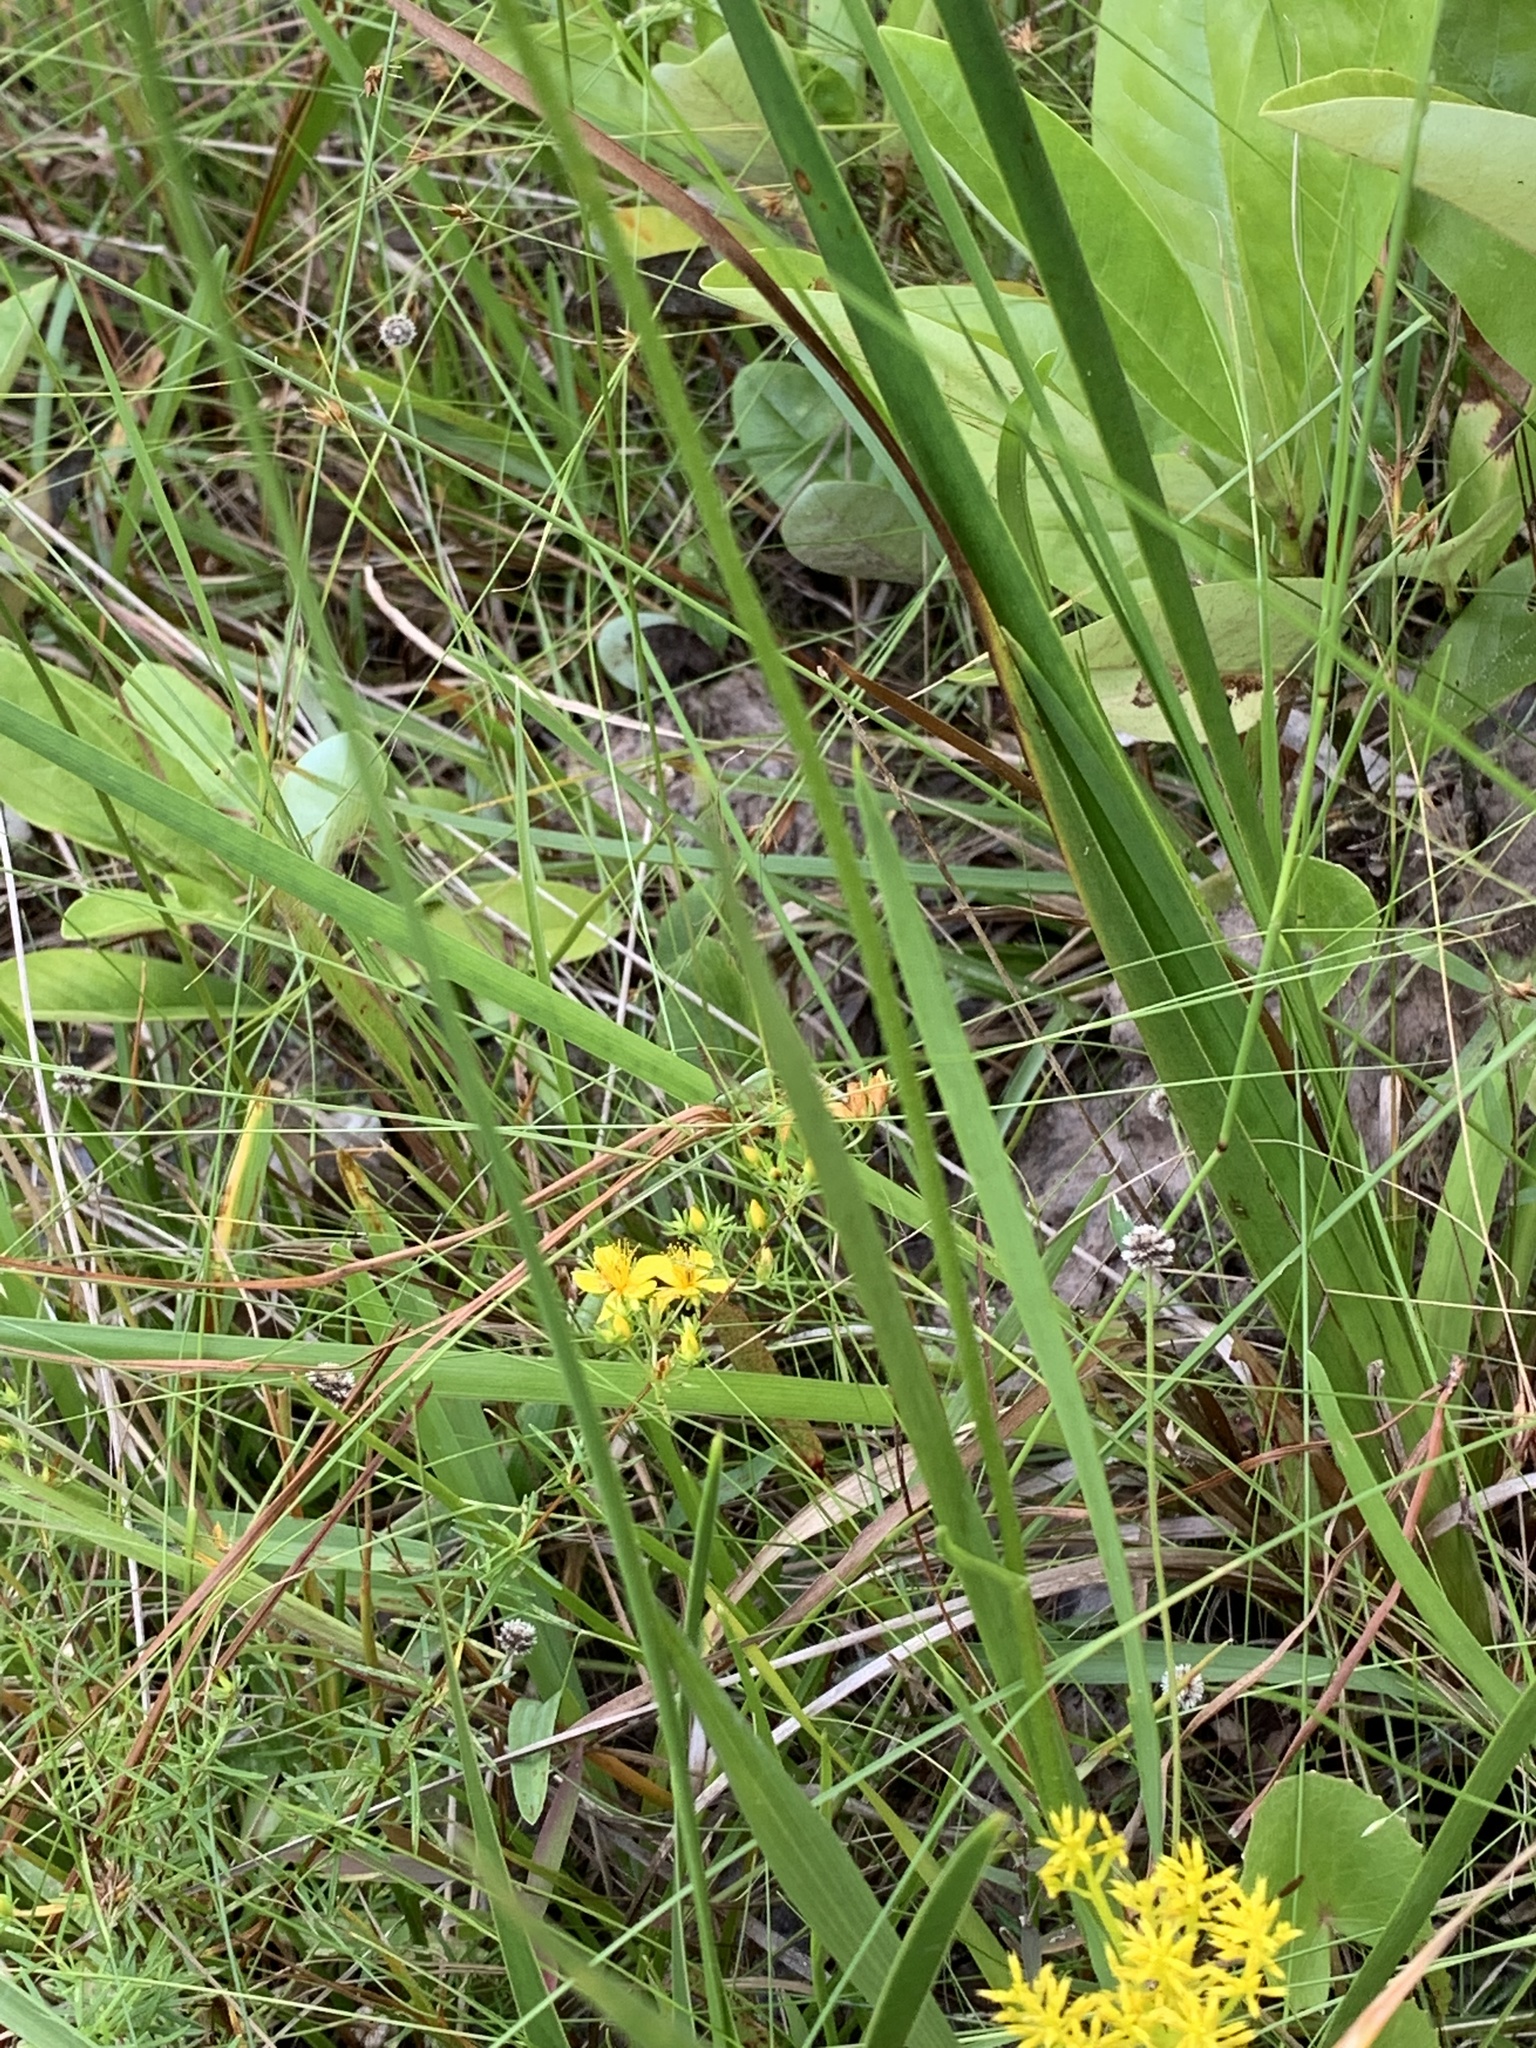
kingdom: Plantae
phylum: Tracheophyta
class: Liliopsida
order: Alismatales
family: Tofieldiaceae
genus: Triantha
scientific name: Triantha racemosa
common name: Coastal false asphodel
